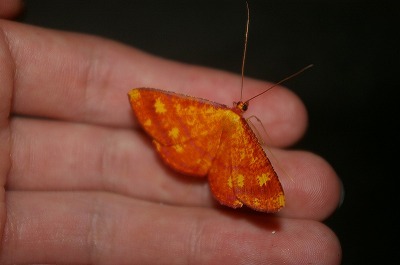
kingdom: Animalia
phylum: Arthropoda
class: Insecta
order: Lepidoptera
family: Geometridae
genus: Eumelea
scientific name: Eumelea biflavata
